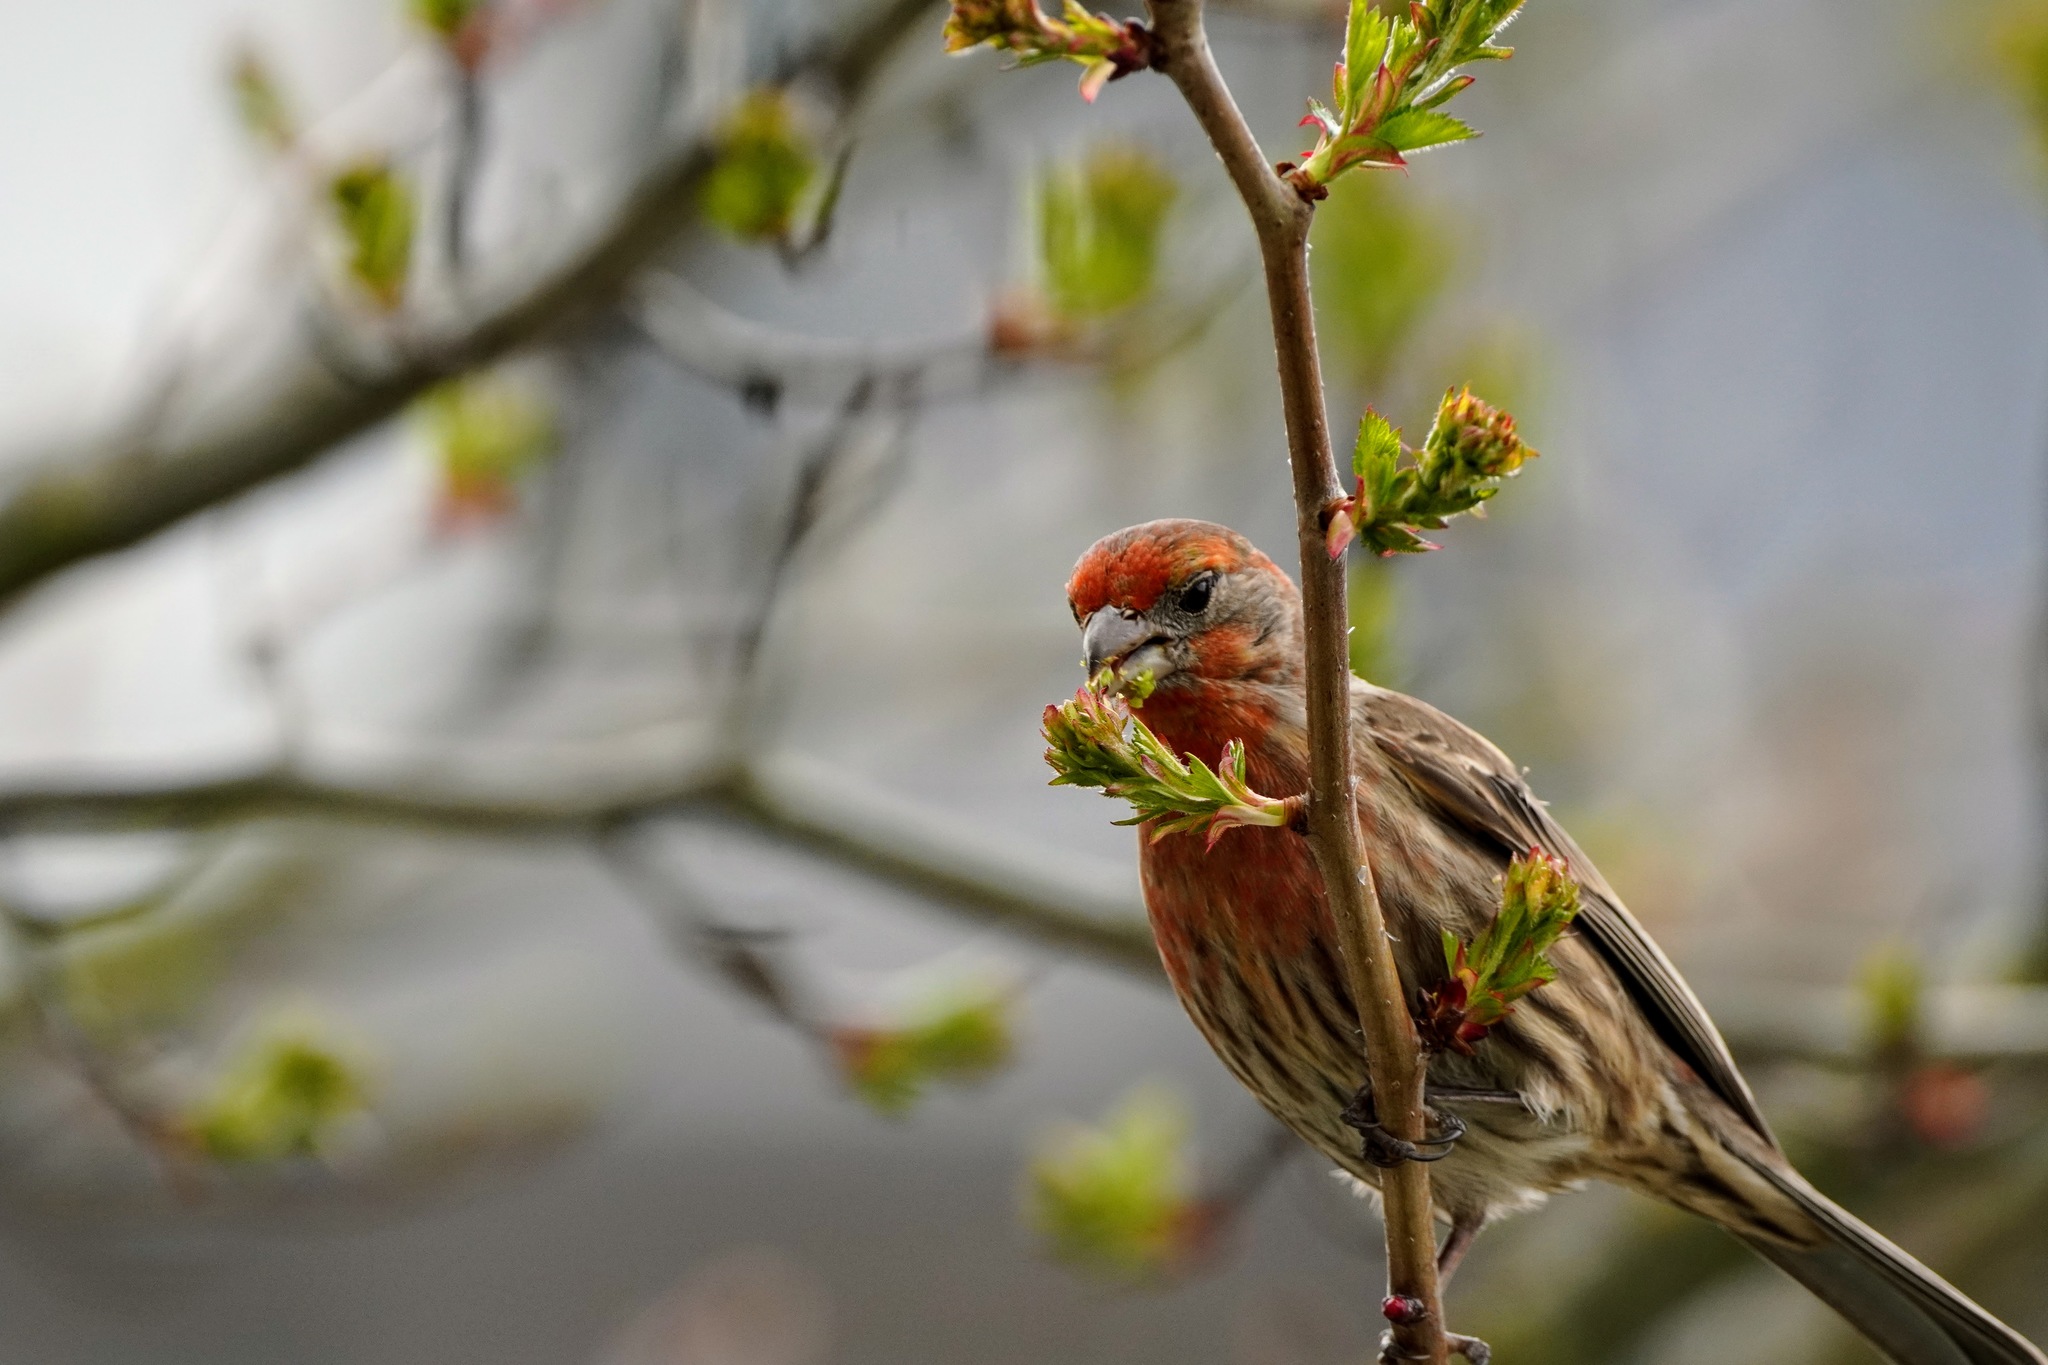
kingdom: Animalia
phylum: Chordata
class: Aves
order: Passeriformes
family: Fringillidae
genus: Haemorhous
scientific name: Haemorhous mexicanus
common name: House finch
